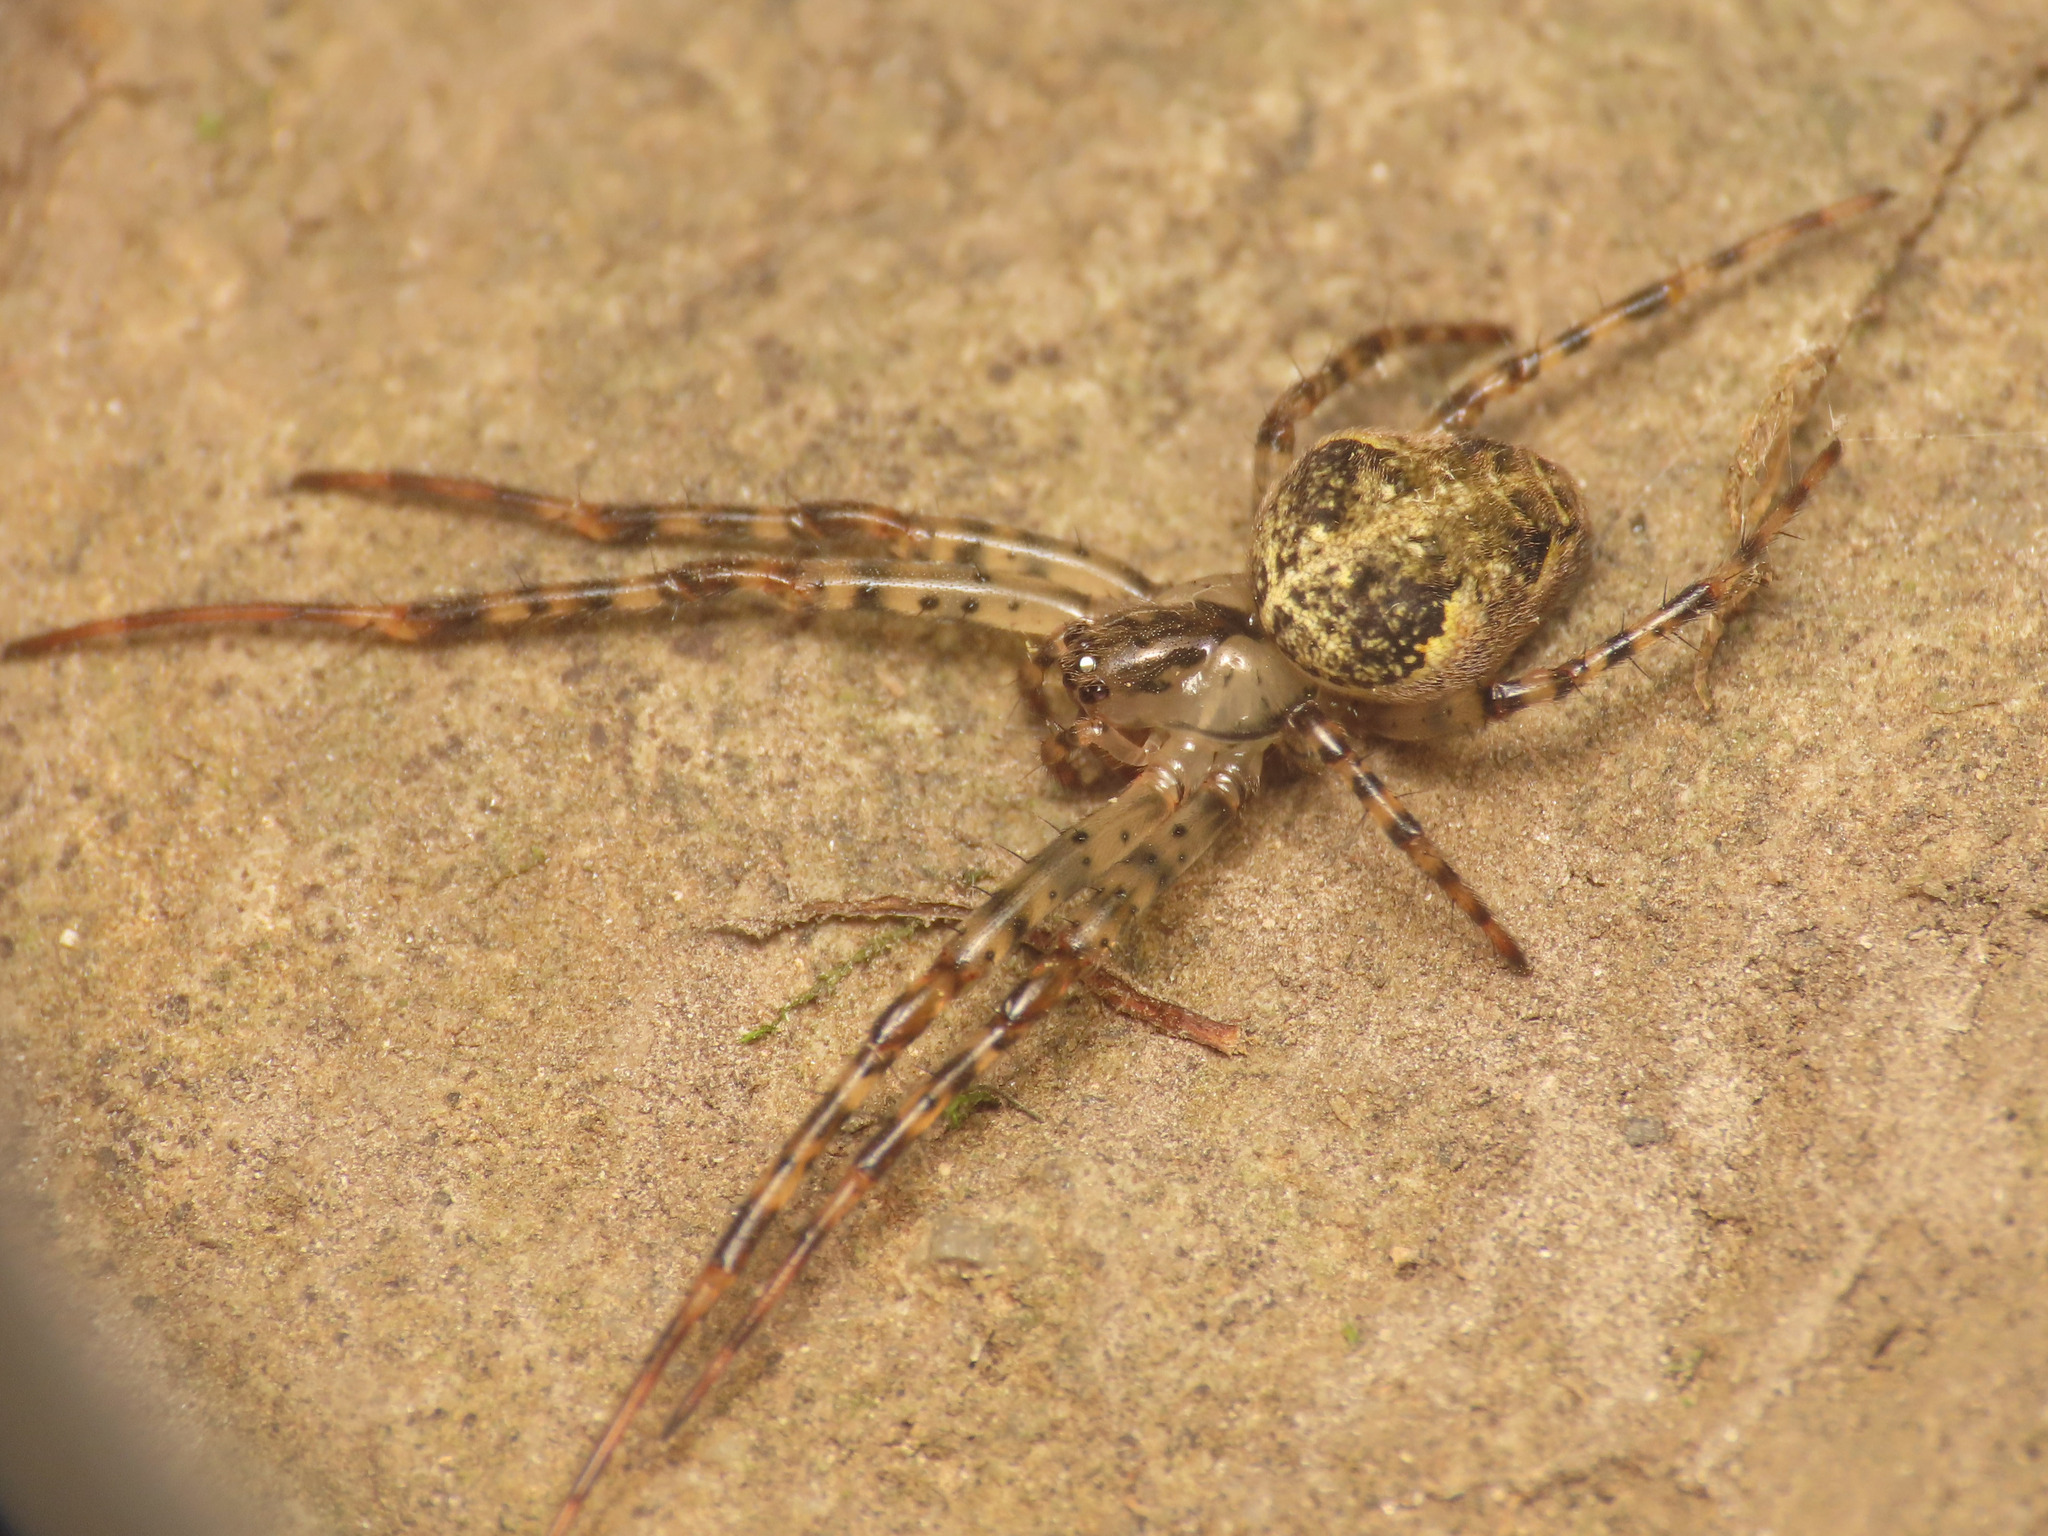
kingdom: Animalia
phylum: Arthropoda
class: Arachnida
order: Araneae
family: Tetragnathidae
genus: Metellina
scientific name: Metellina merianae
